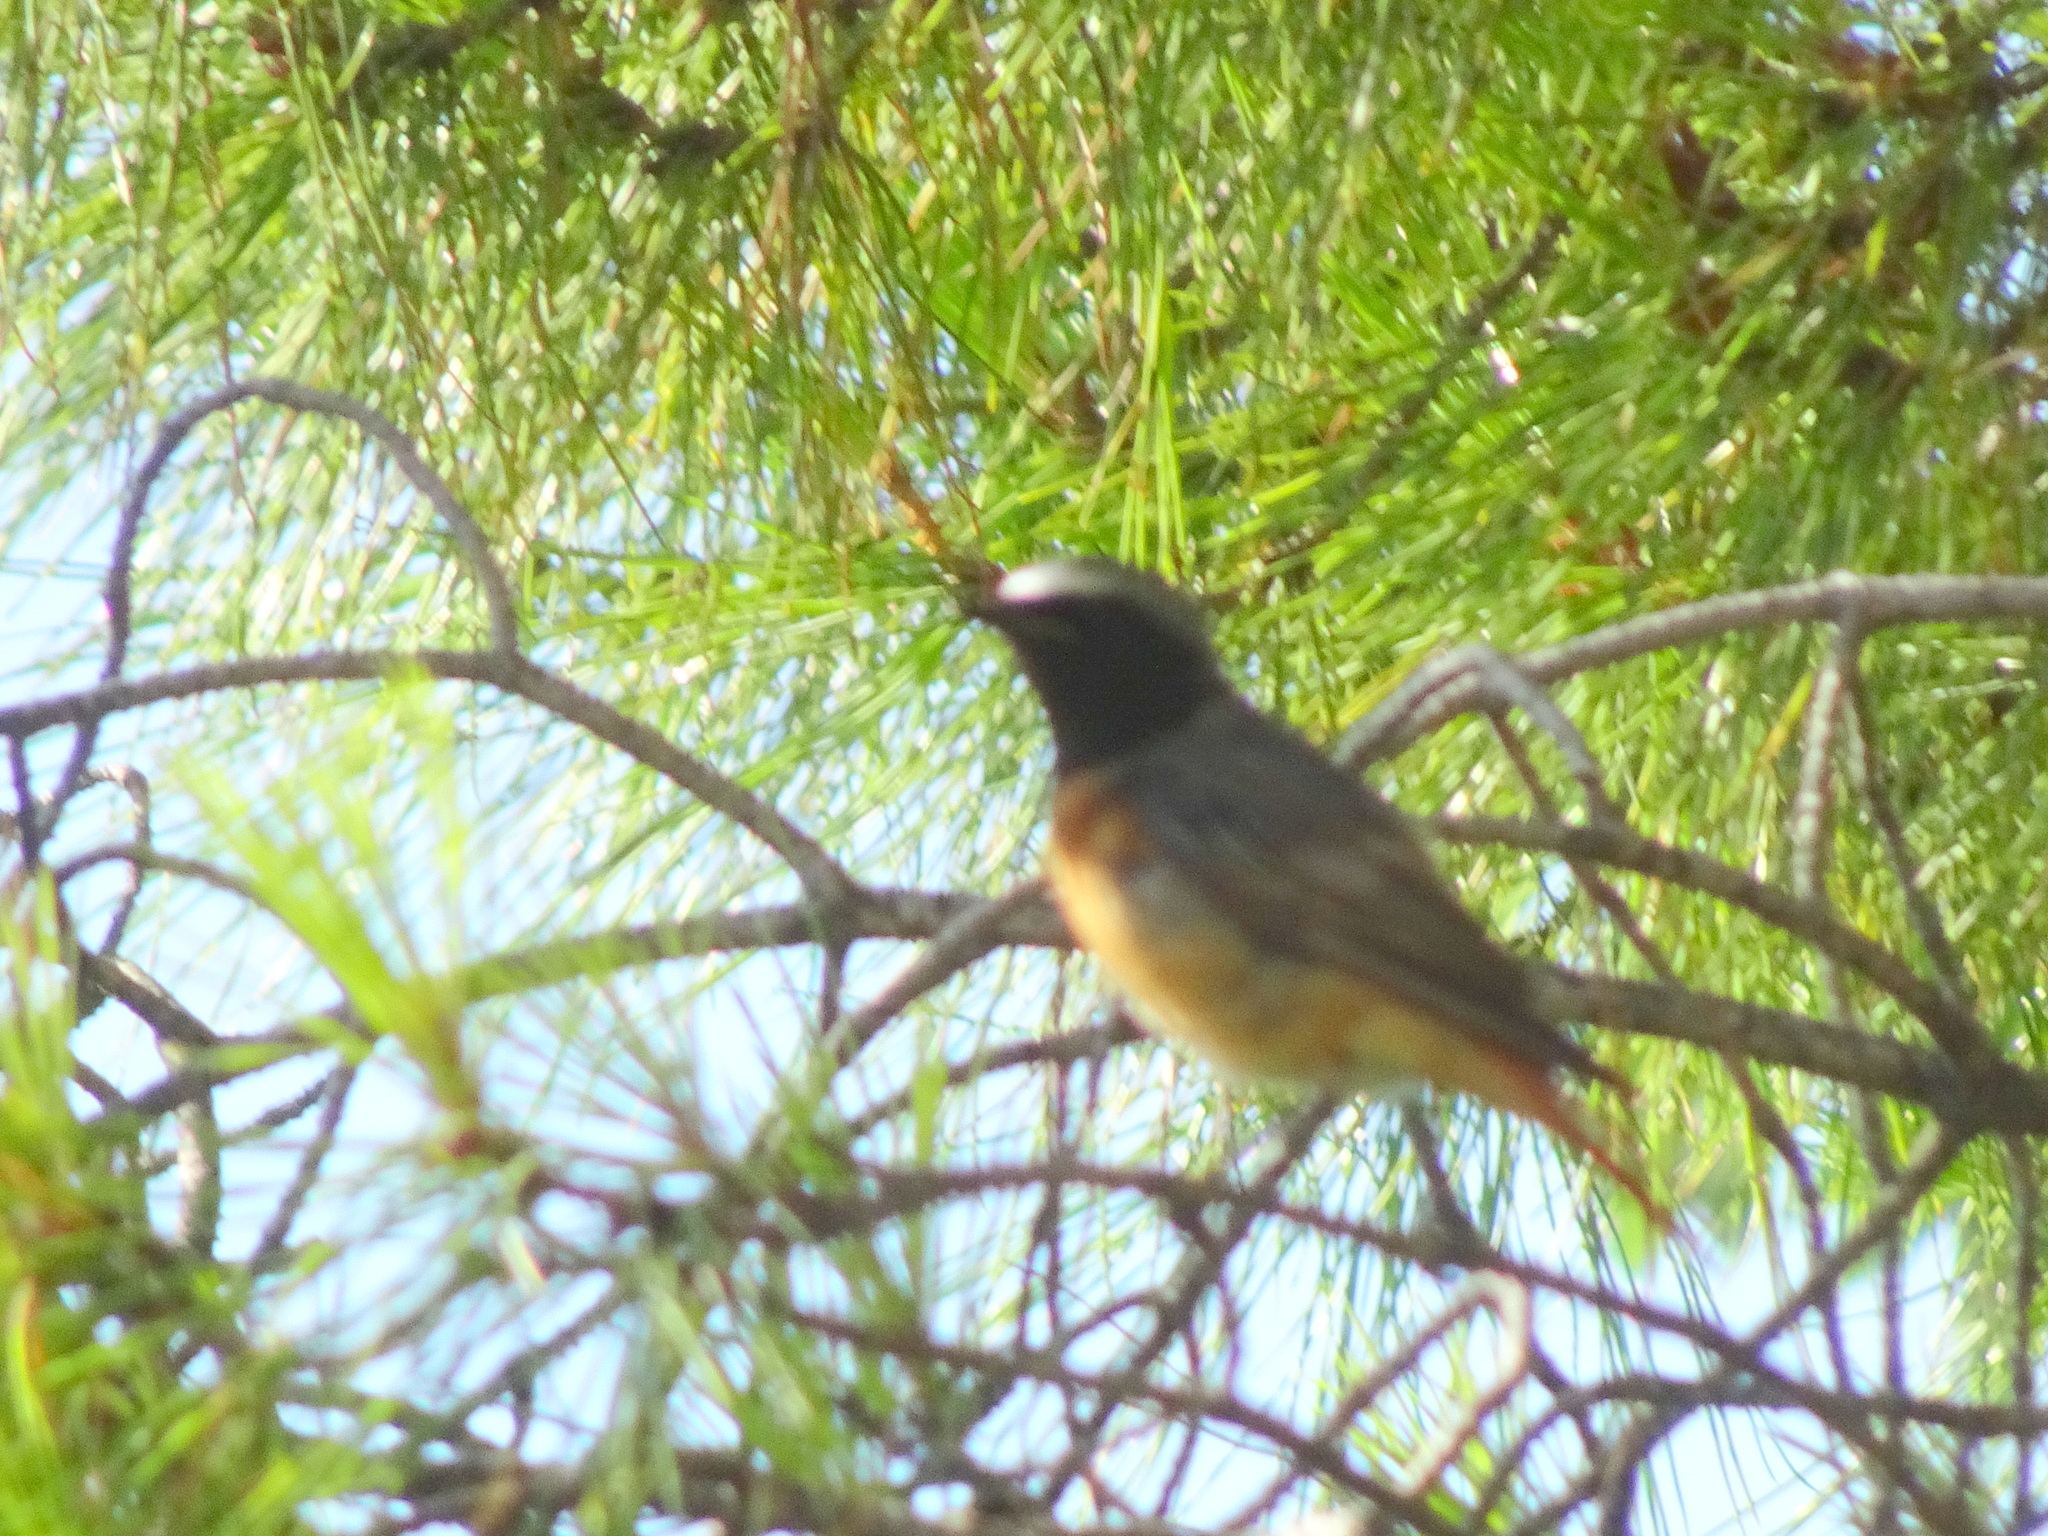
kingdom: Animalia
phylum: Chordata
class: Aves
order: Passeriformes
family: Muscicapidae
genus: Phoenicurus
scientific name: Phoenicurus phoenicurus
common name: Common redstart
